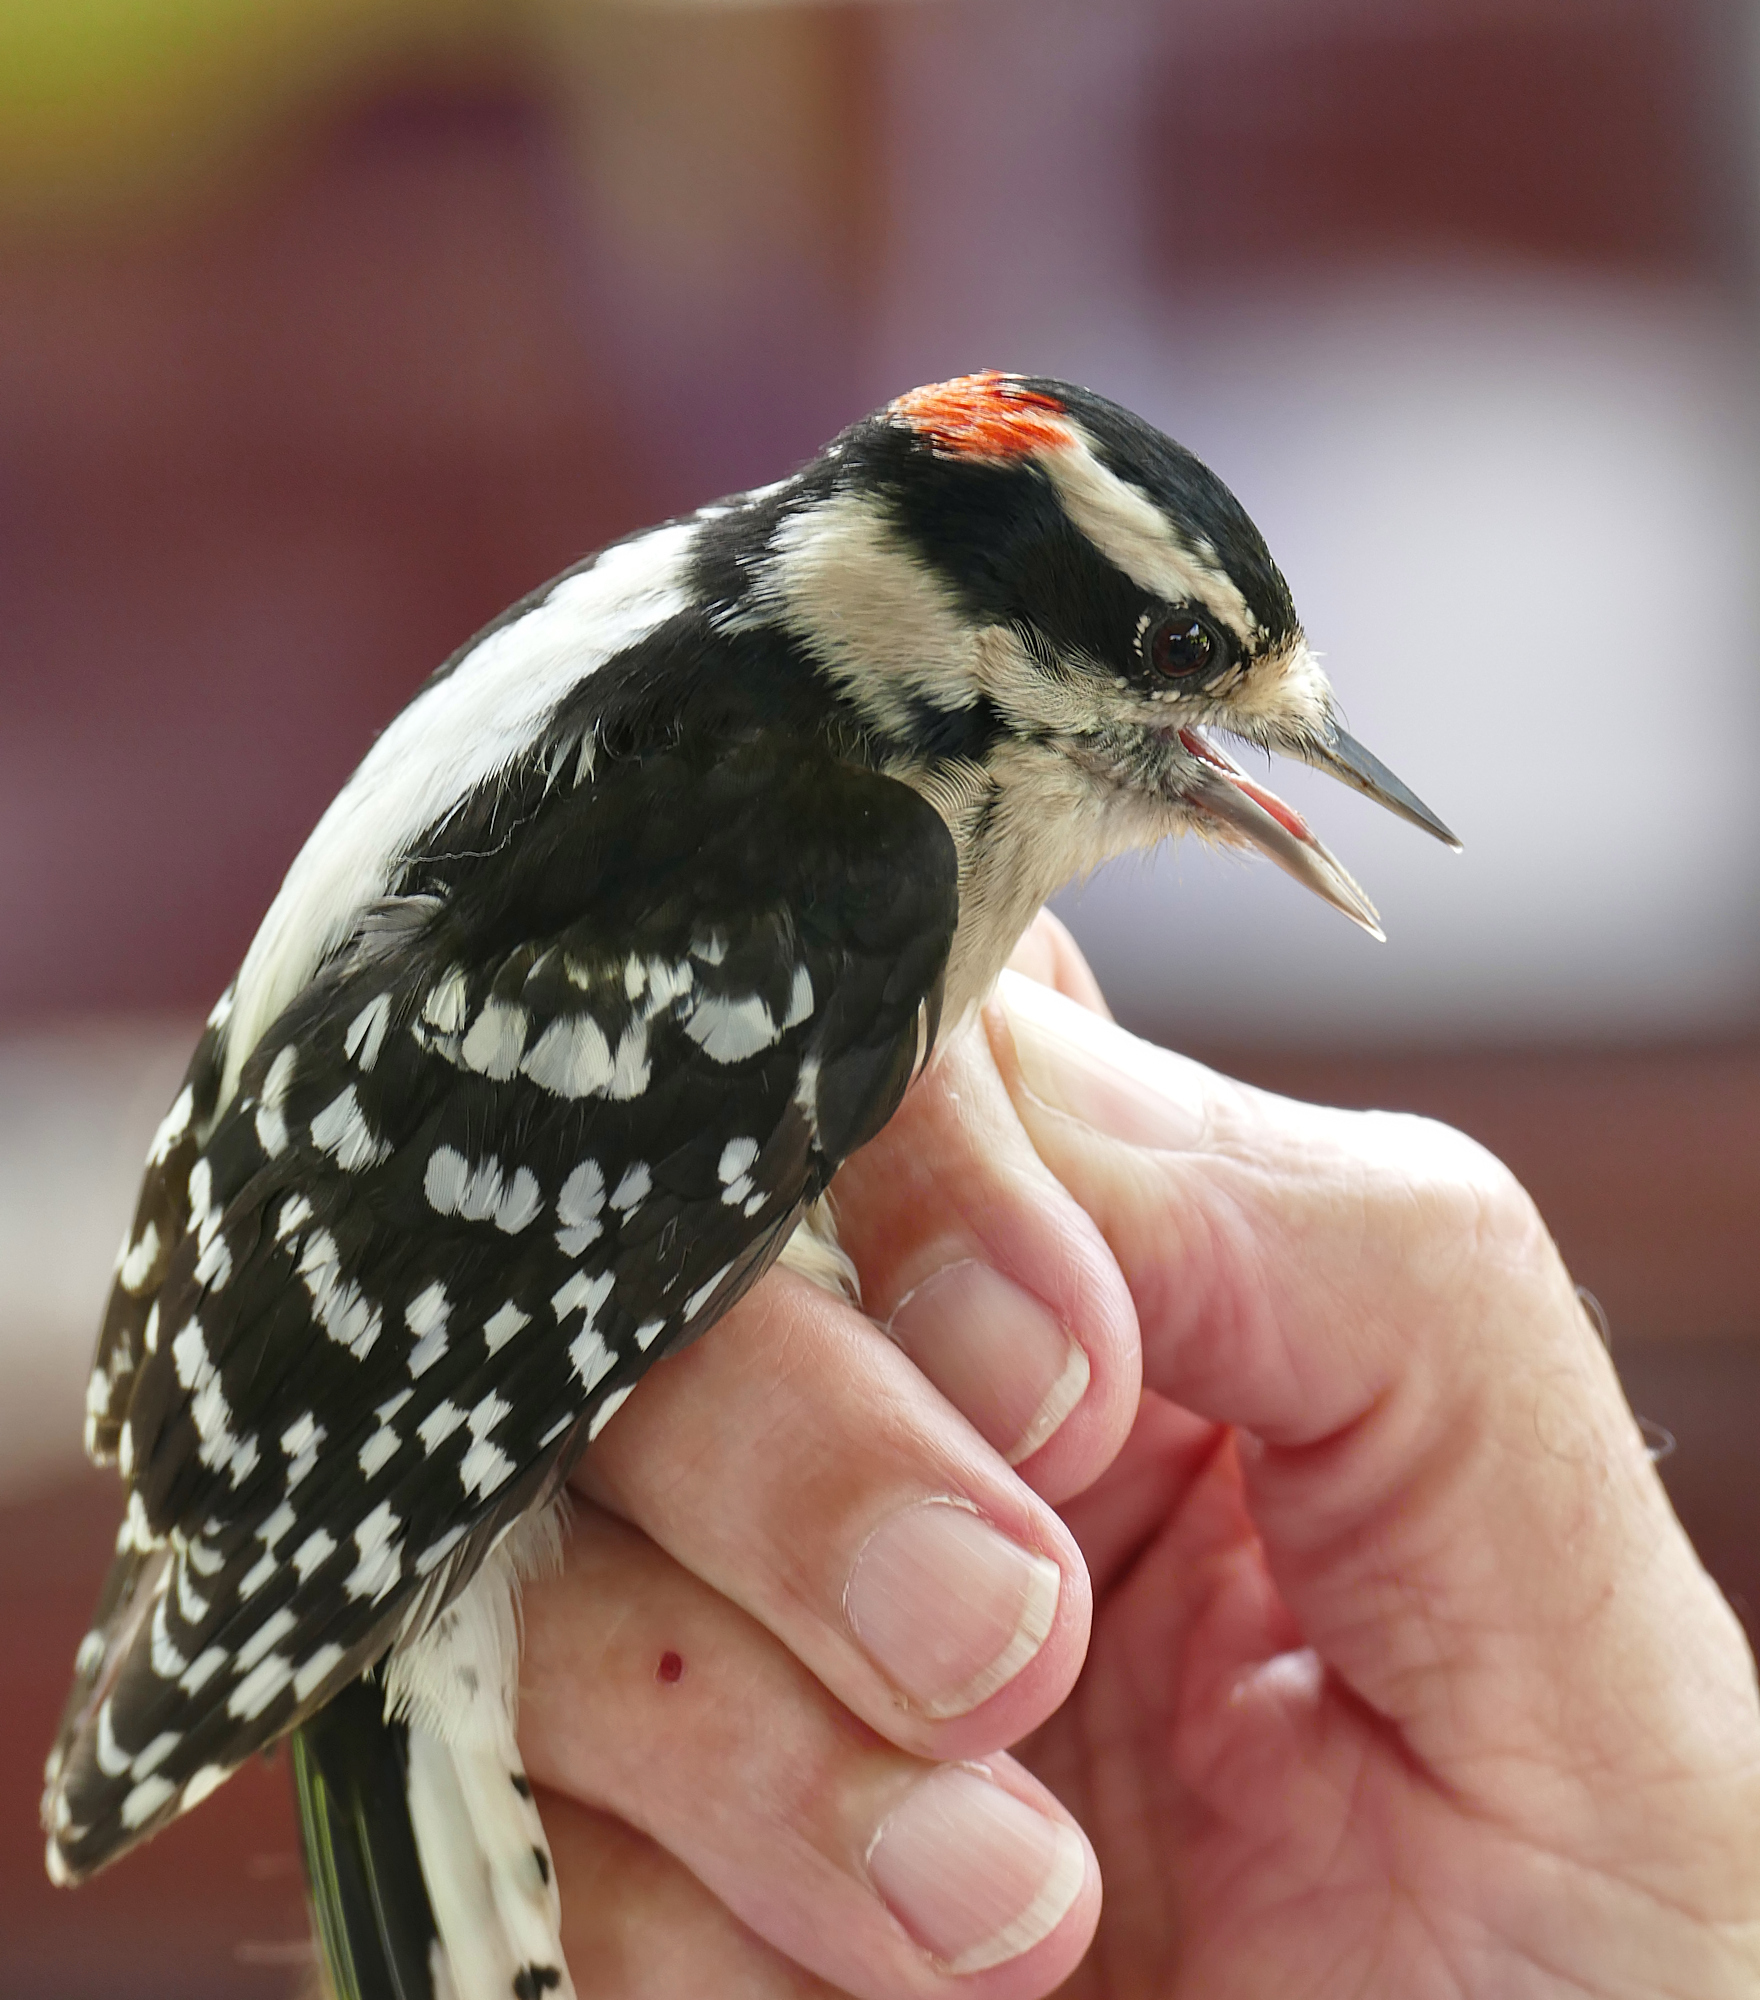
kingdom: Animalia
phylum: Chordata
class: Aves
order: Piciformes
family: Picidae
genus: Dryobates
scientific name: Dryobates pubescens
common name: Downy woodpecker
